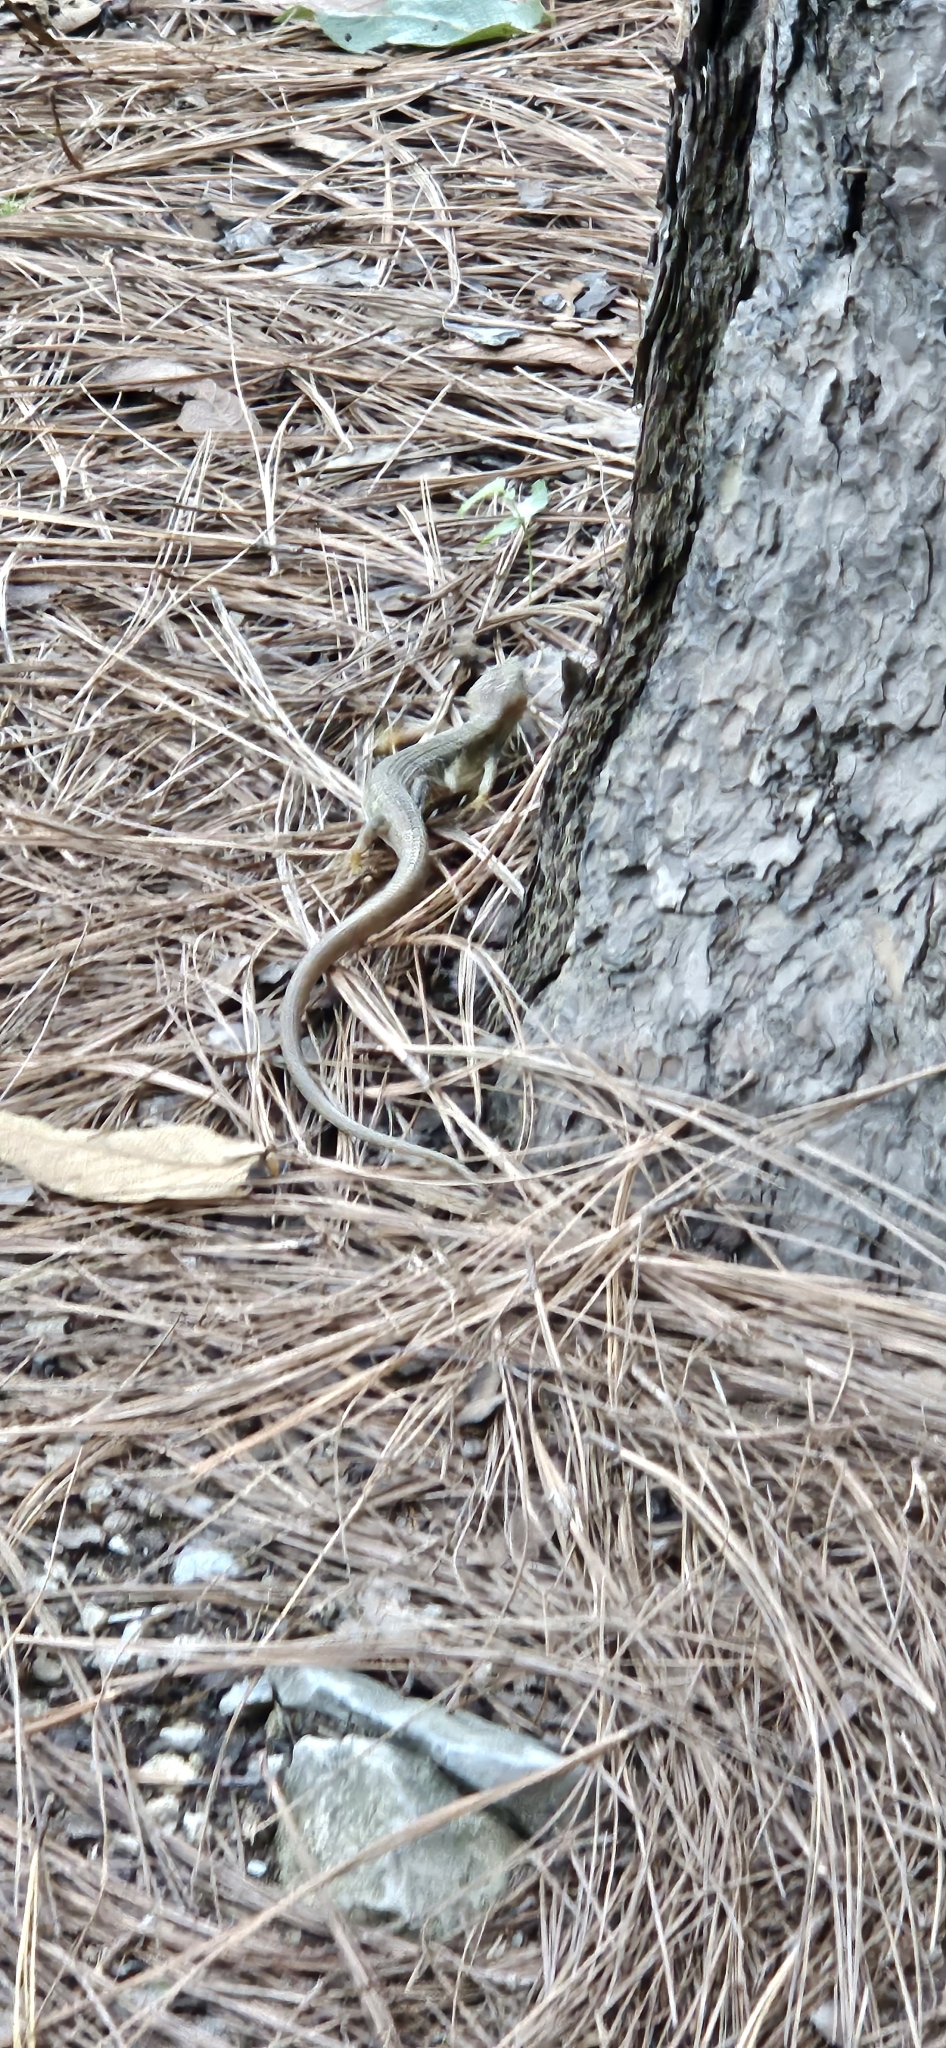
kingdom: Animalia
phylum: Chordata
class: Squamata
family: Anguidae
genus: Gerrhonotus
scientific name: Gerrhonotus infernalis
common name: Texas alligator lizard
